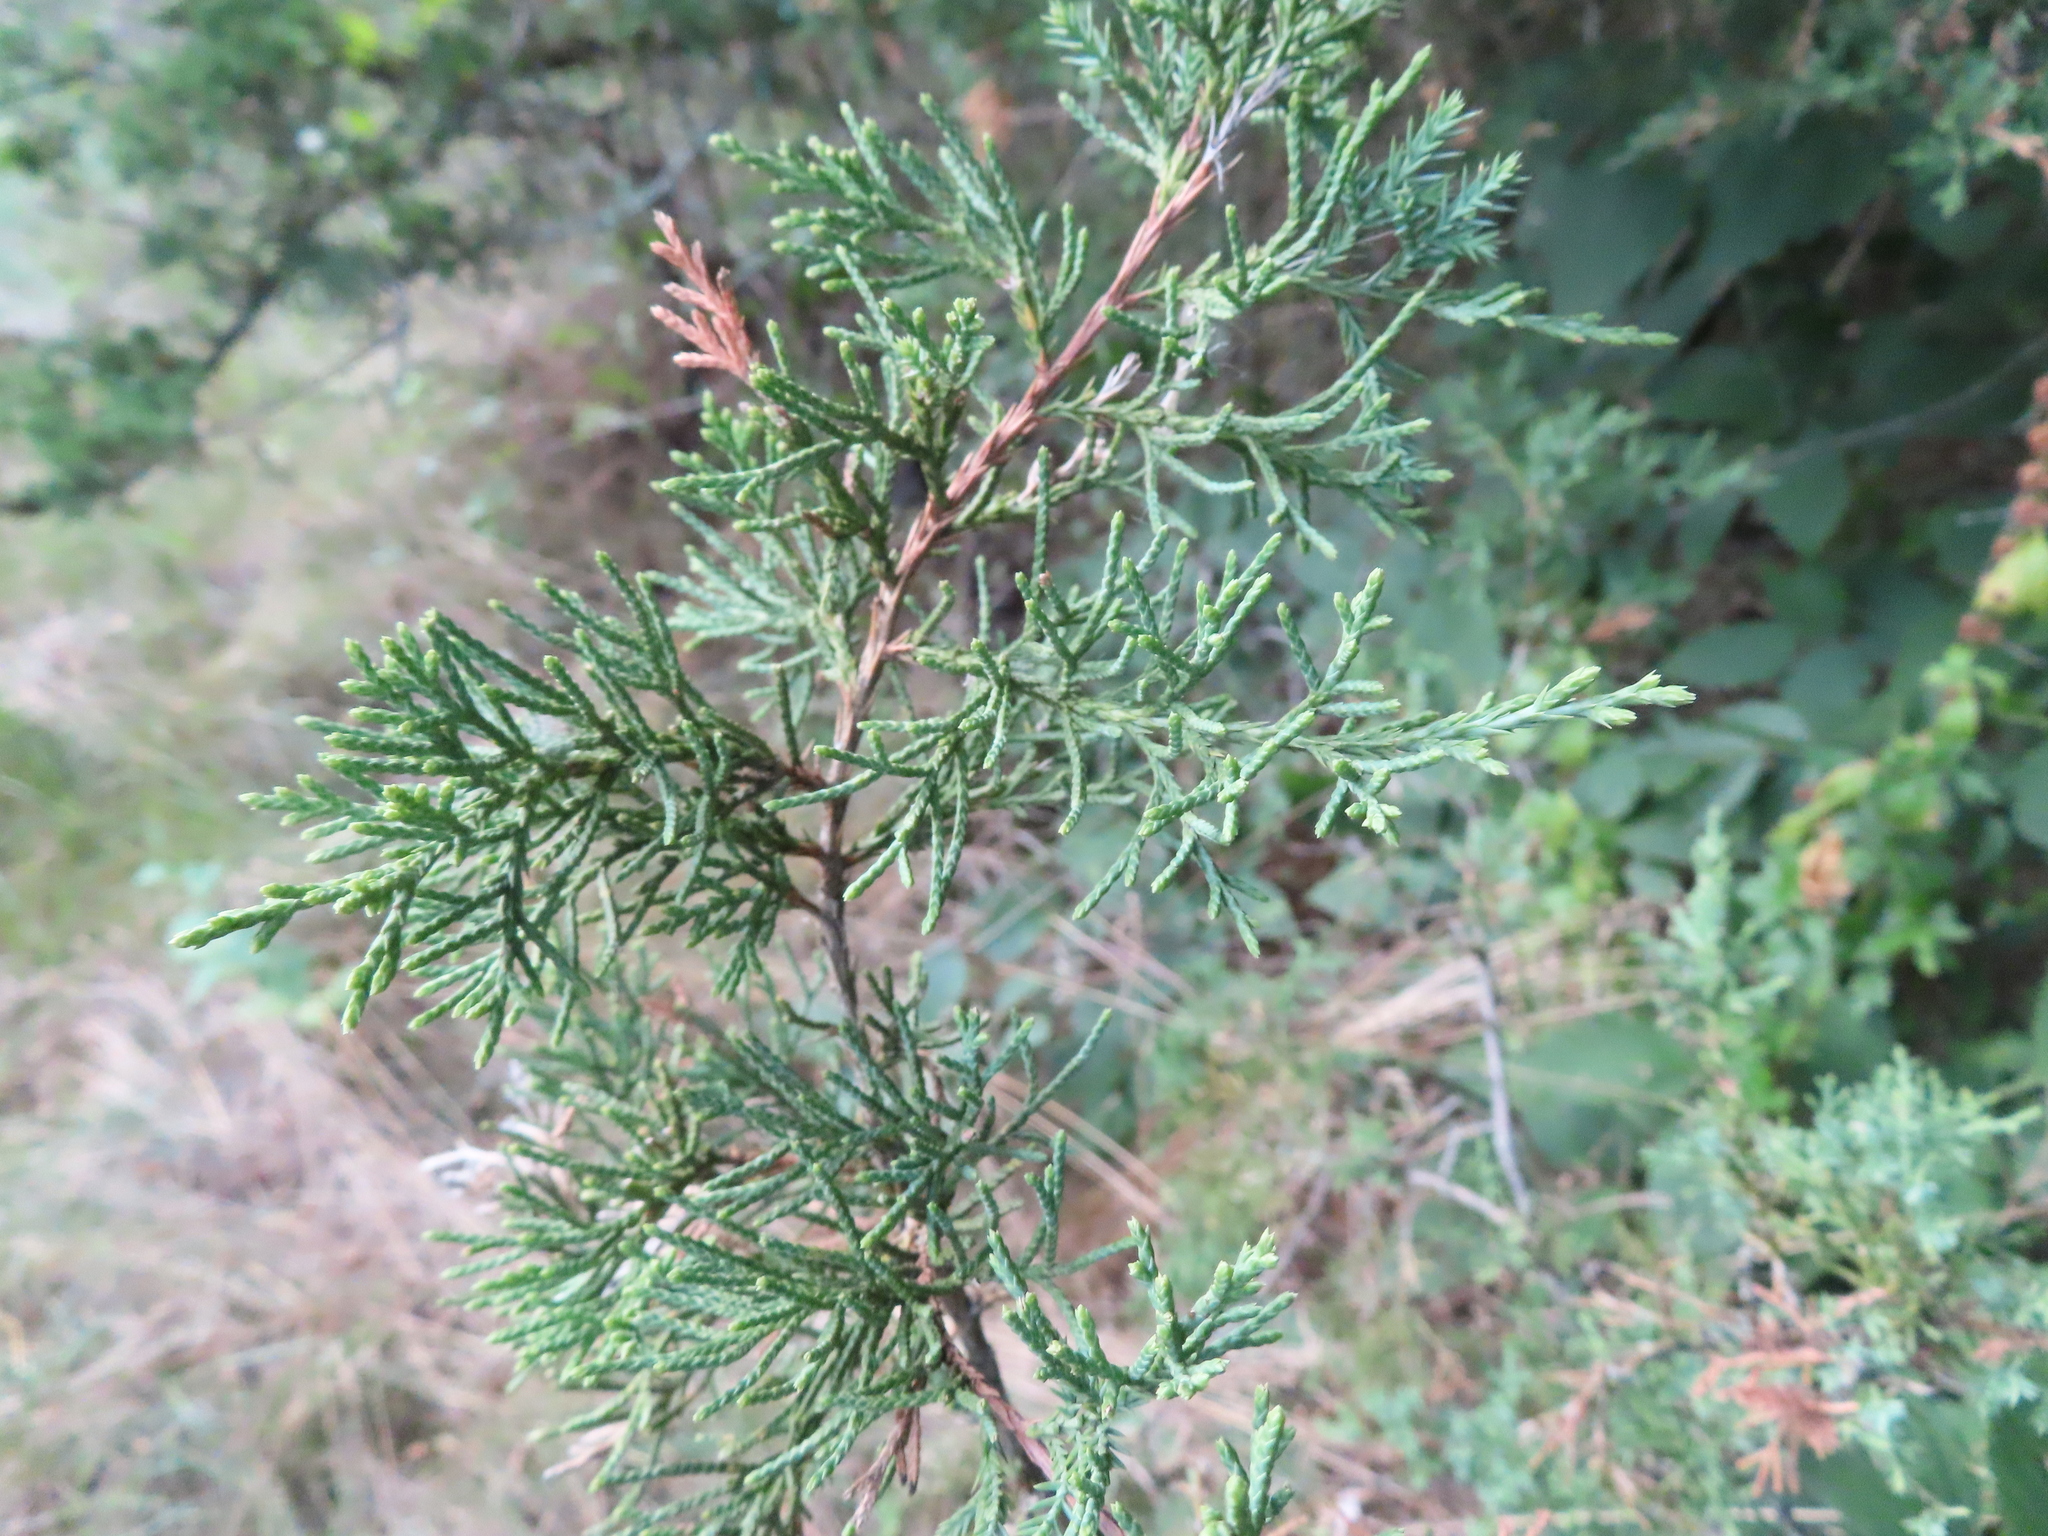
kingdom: Plantae
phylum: Tracheophyta
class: Pinopsida
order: Pinales
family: Cupressaceae
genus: Juniperus
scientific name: Juniperus virginiana
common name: Red juniper
